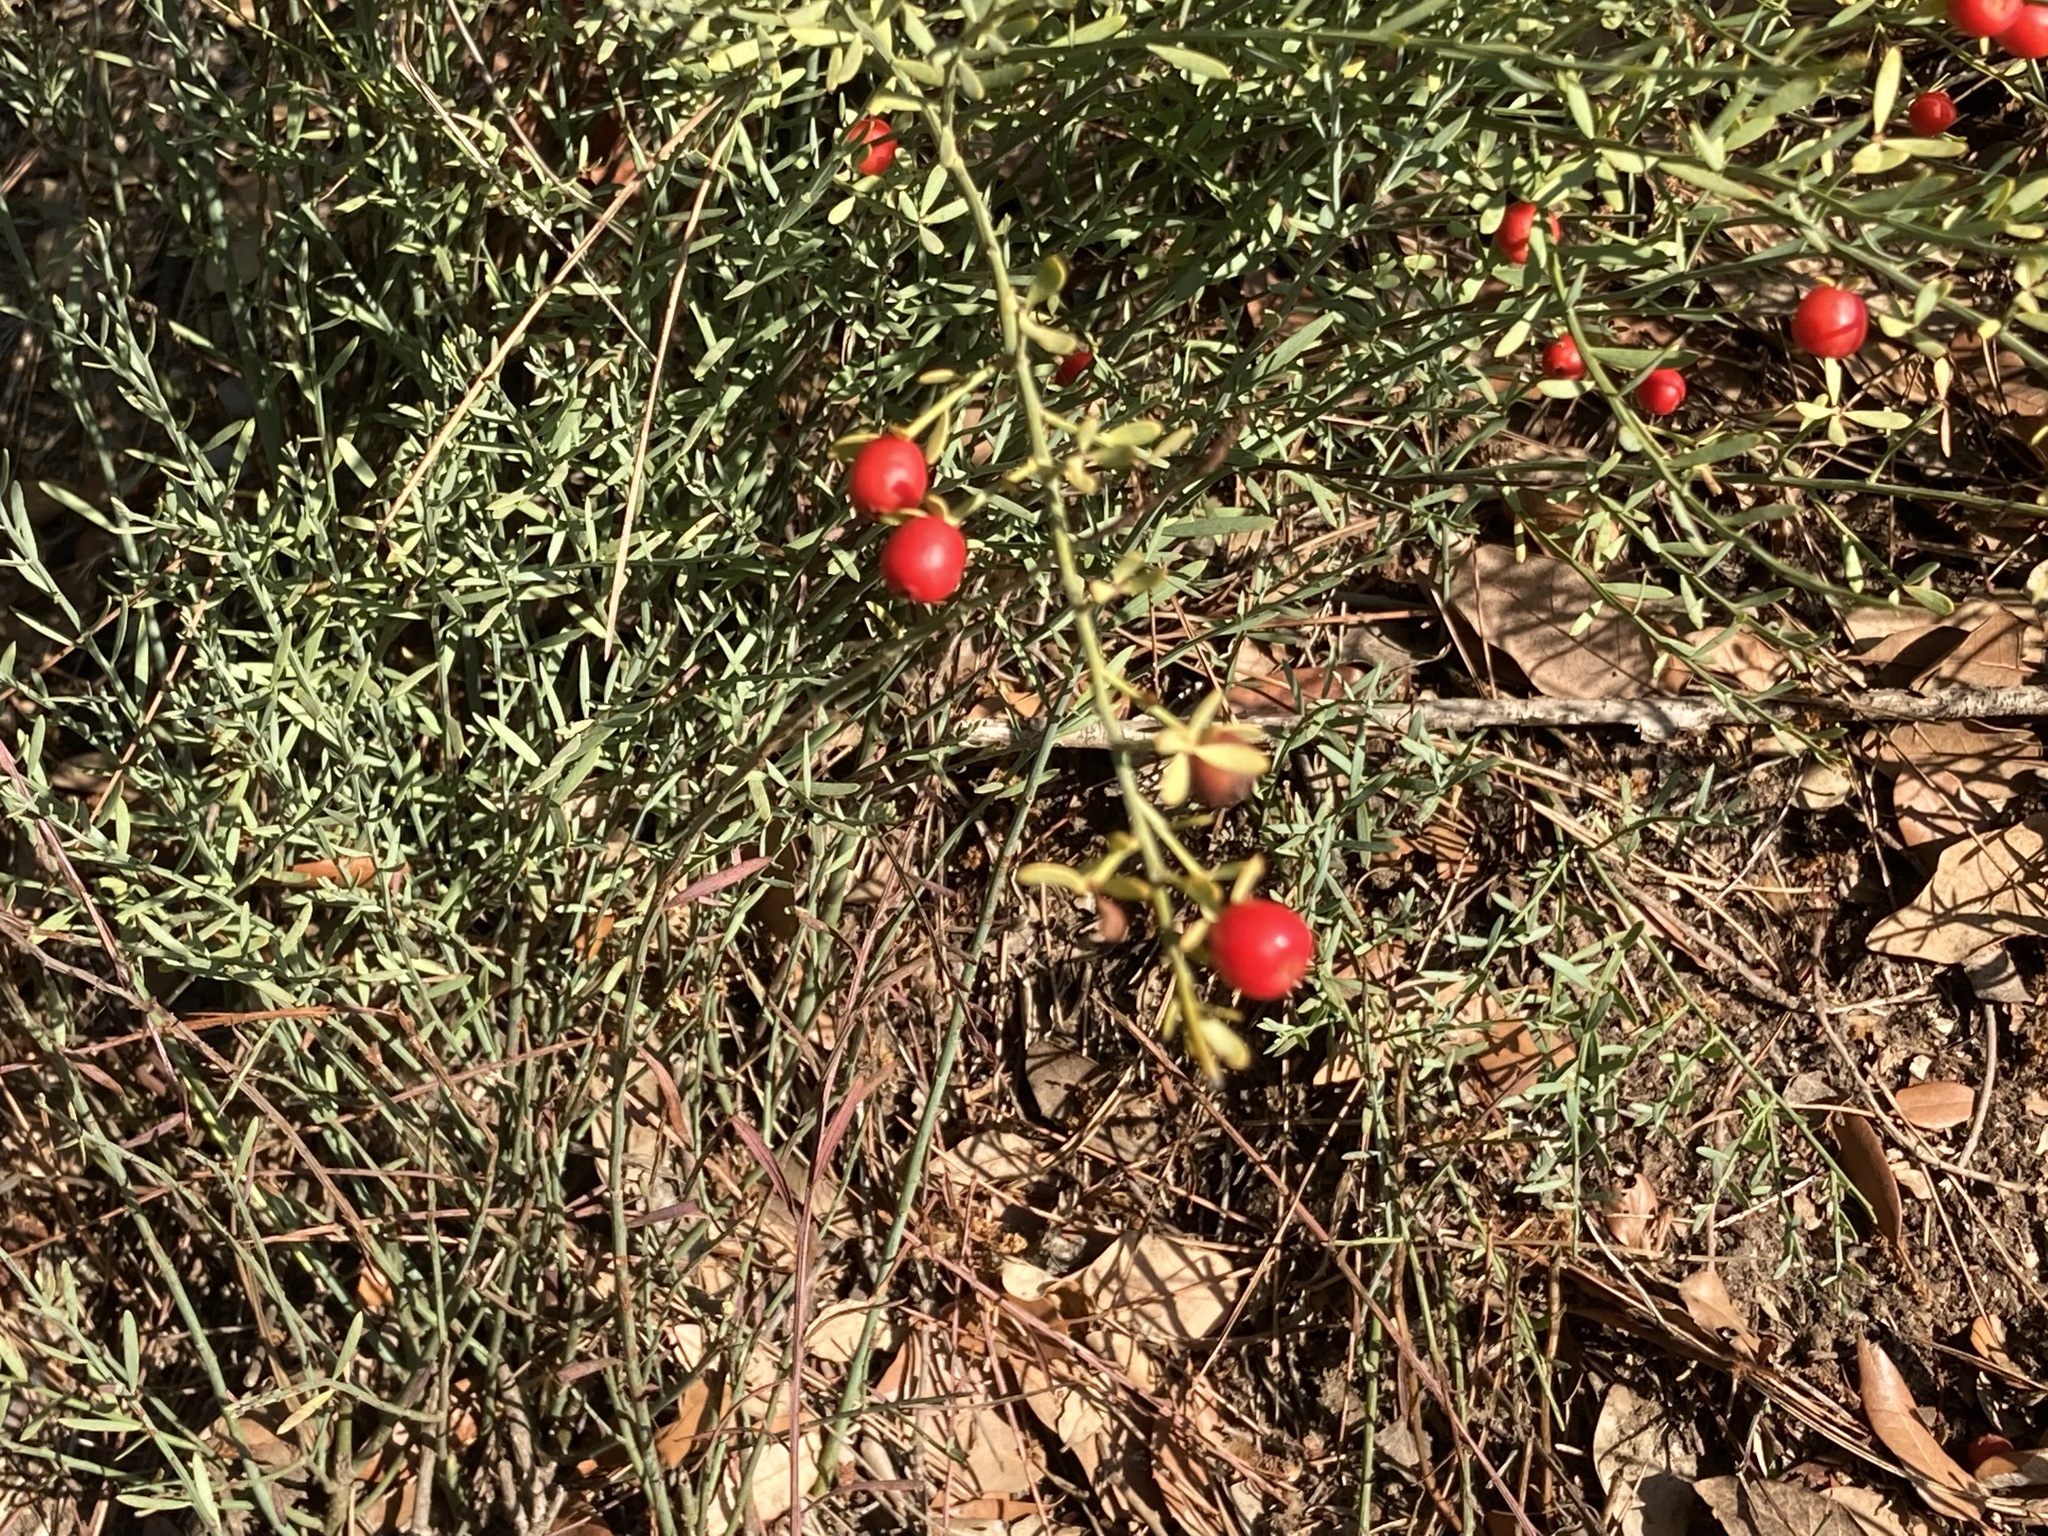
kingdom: Plantae
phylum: Tracheophyta
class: Magnoliopsida
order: Santalales
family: Santalaceae
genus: Osyris
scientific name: Osyris alba
